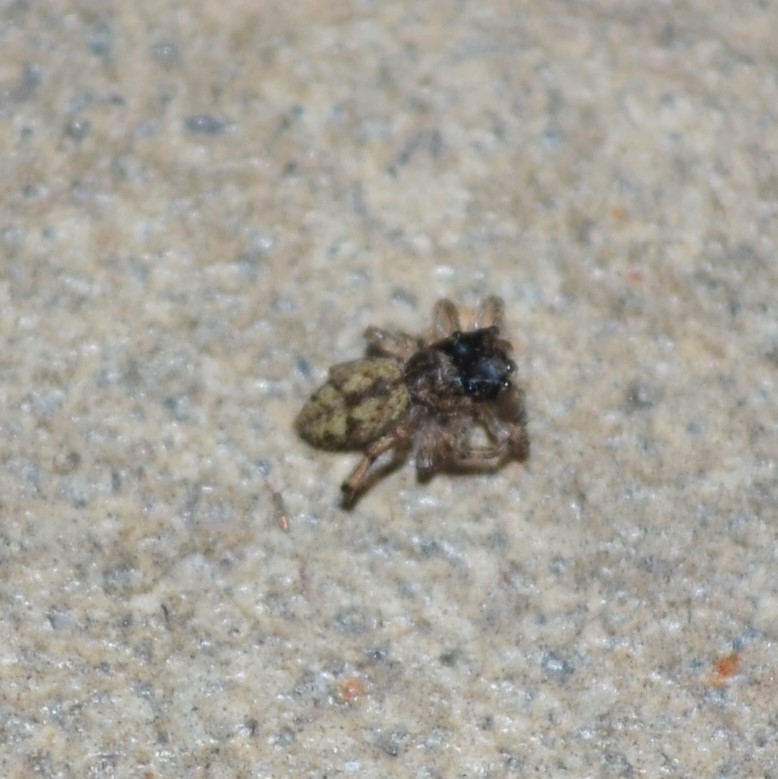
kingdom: Animalia
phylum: Arthropoda
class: Arachnida
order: Araneae
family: Salticidae
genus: Platycryptus
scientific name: Platycryptus undatus
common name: Tan jumping spider
